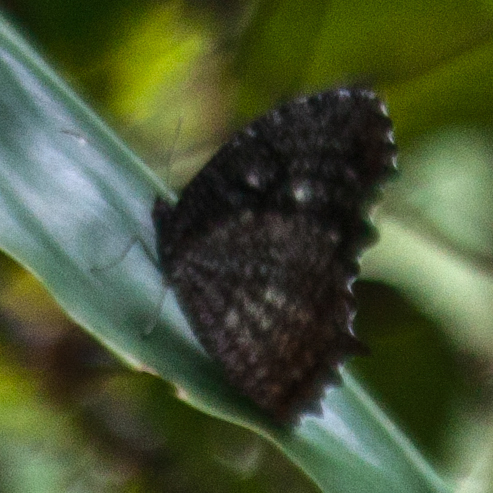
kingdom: Animalia
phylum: Arthropoda
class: Insecta
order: Lepidoptera
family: Nymphalidae
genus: Elymnias
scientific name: Elymnias nesaea
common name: Tiger palmfly
